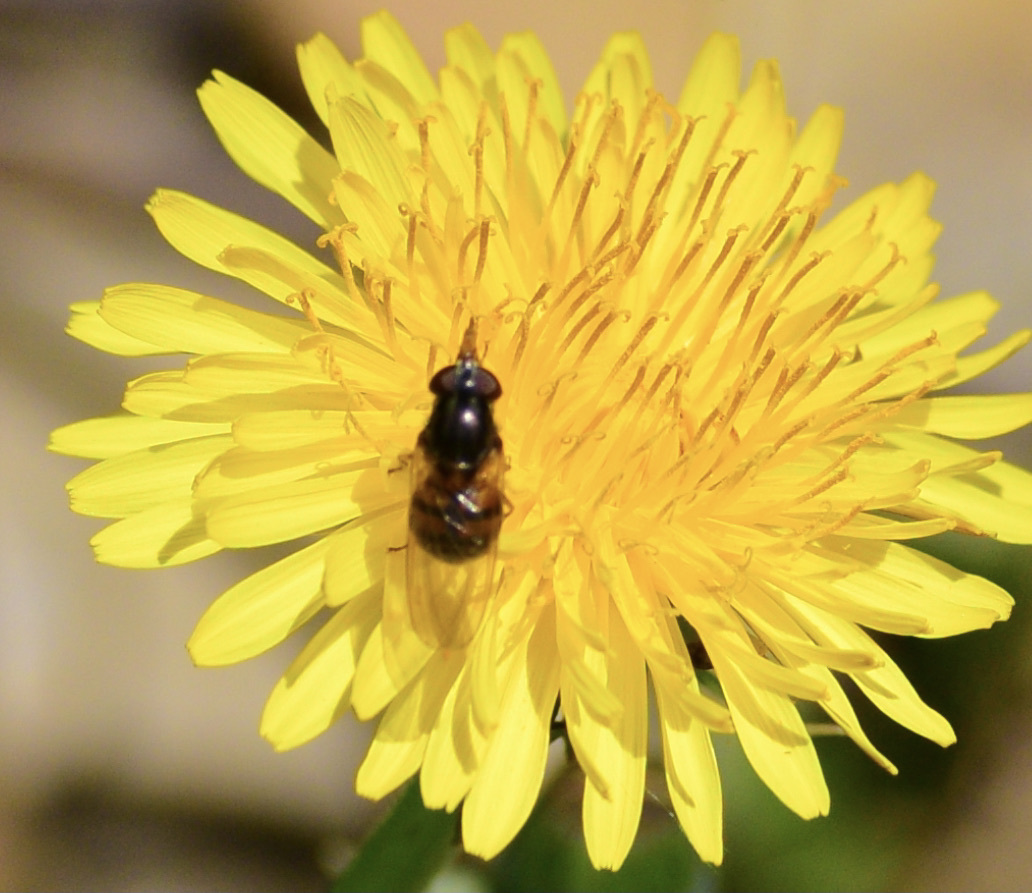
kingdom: Animalia
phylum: Arthropoda
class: Insecta
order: Diptera
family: Syrphidae
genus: Rhingia
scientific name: Rhingia nasica
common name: American snout fly
